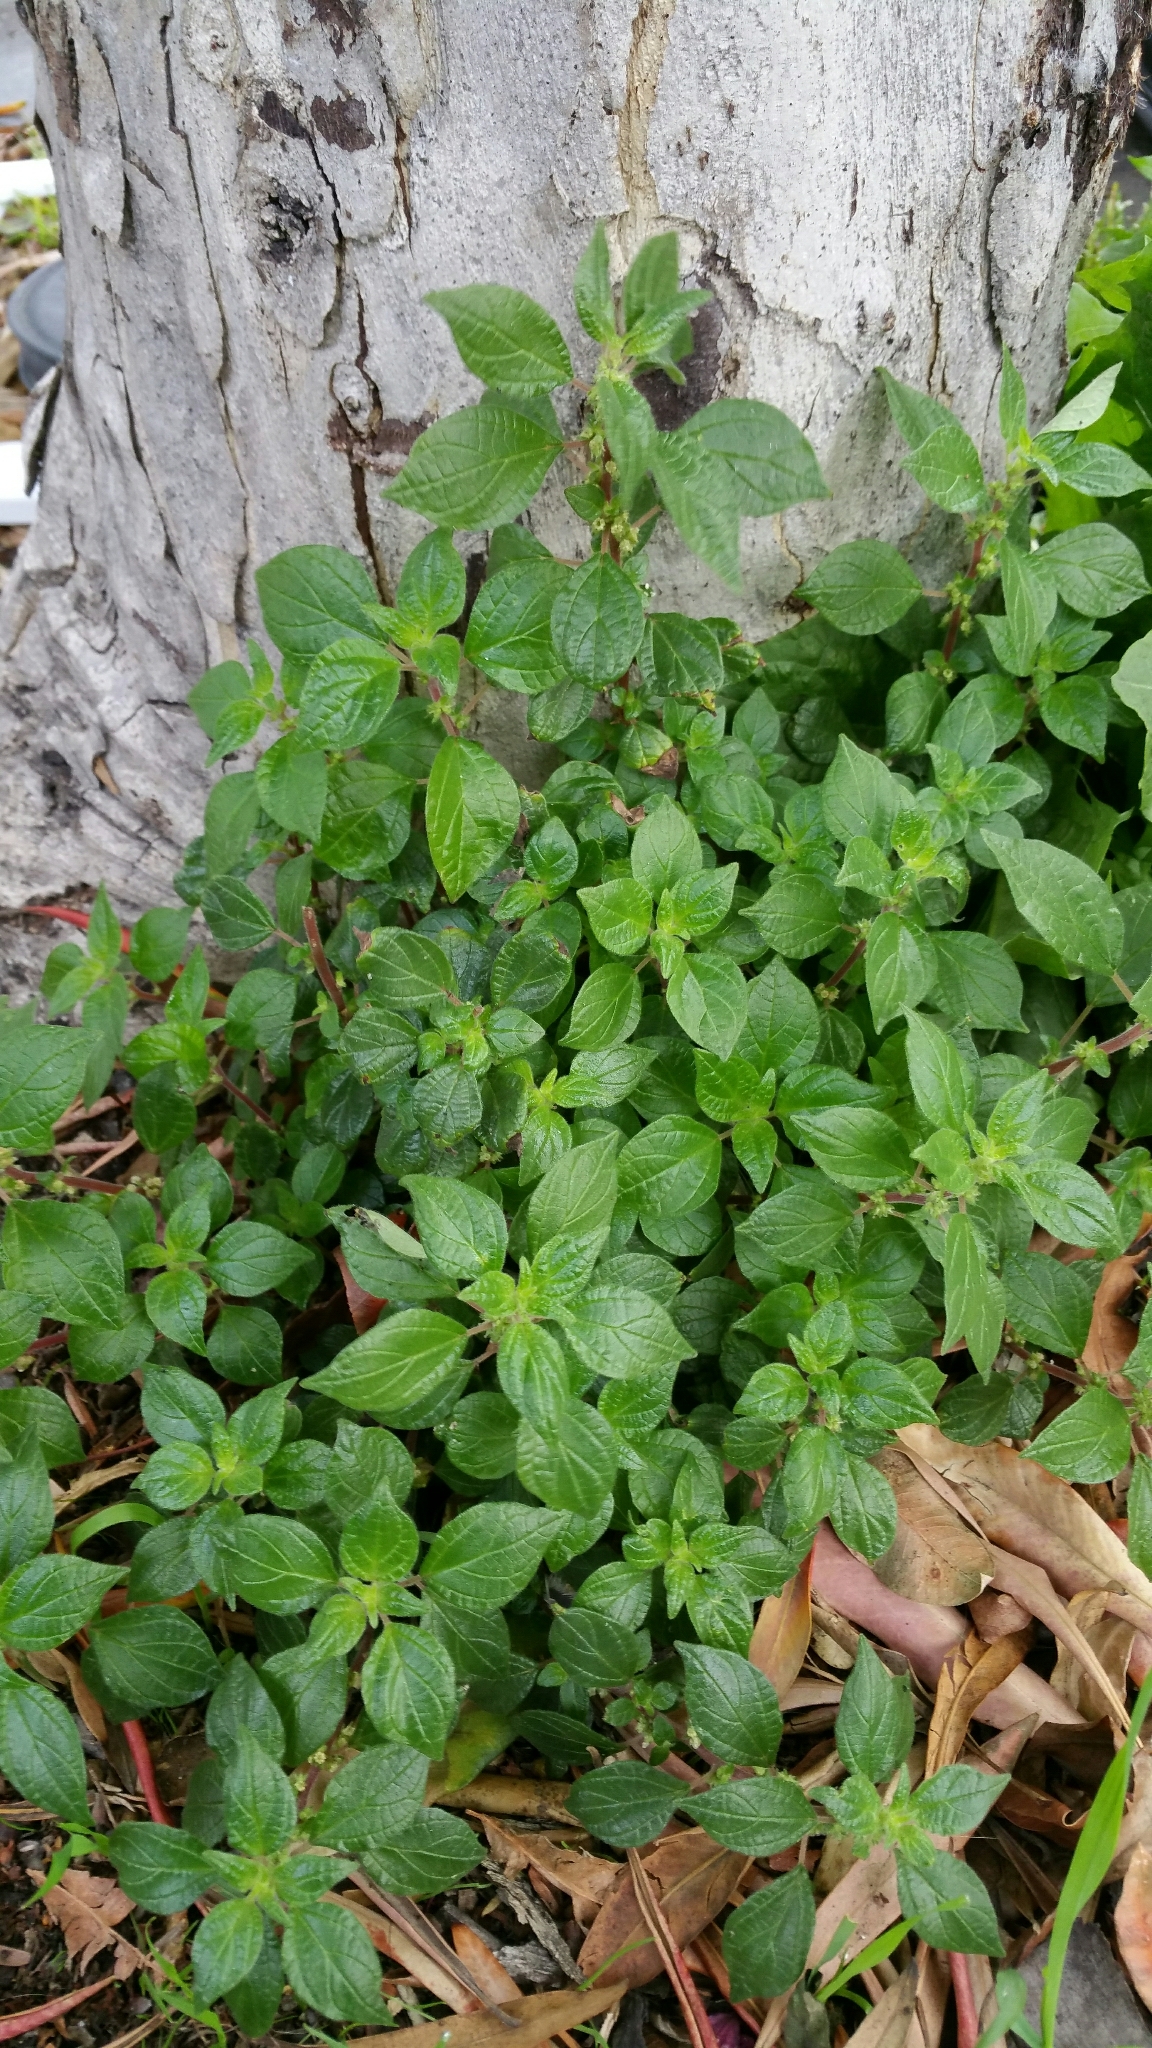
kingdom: Plantae
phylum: Tracheophyta
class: Magnoliopsida
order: Rosales
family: Urticaceae
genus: Parietaria
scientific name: Parietaria judaica
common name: Pellitory-of-the-wall
